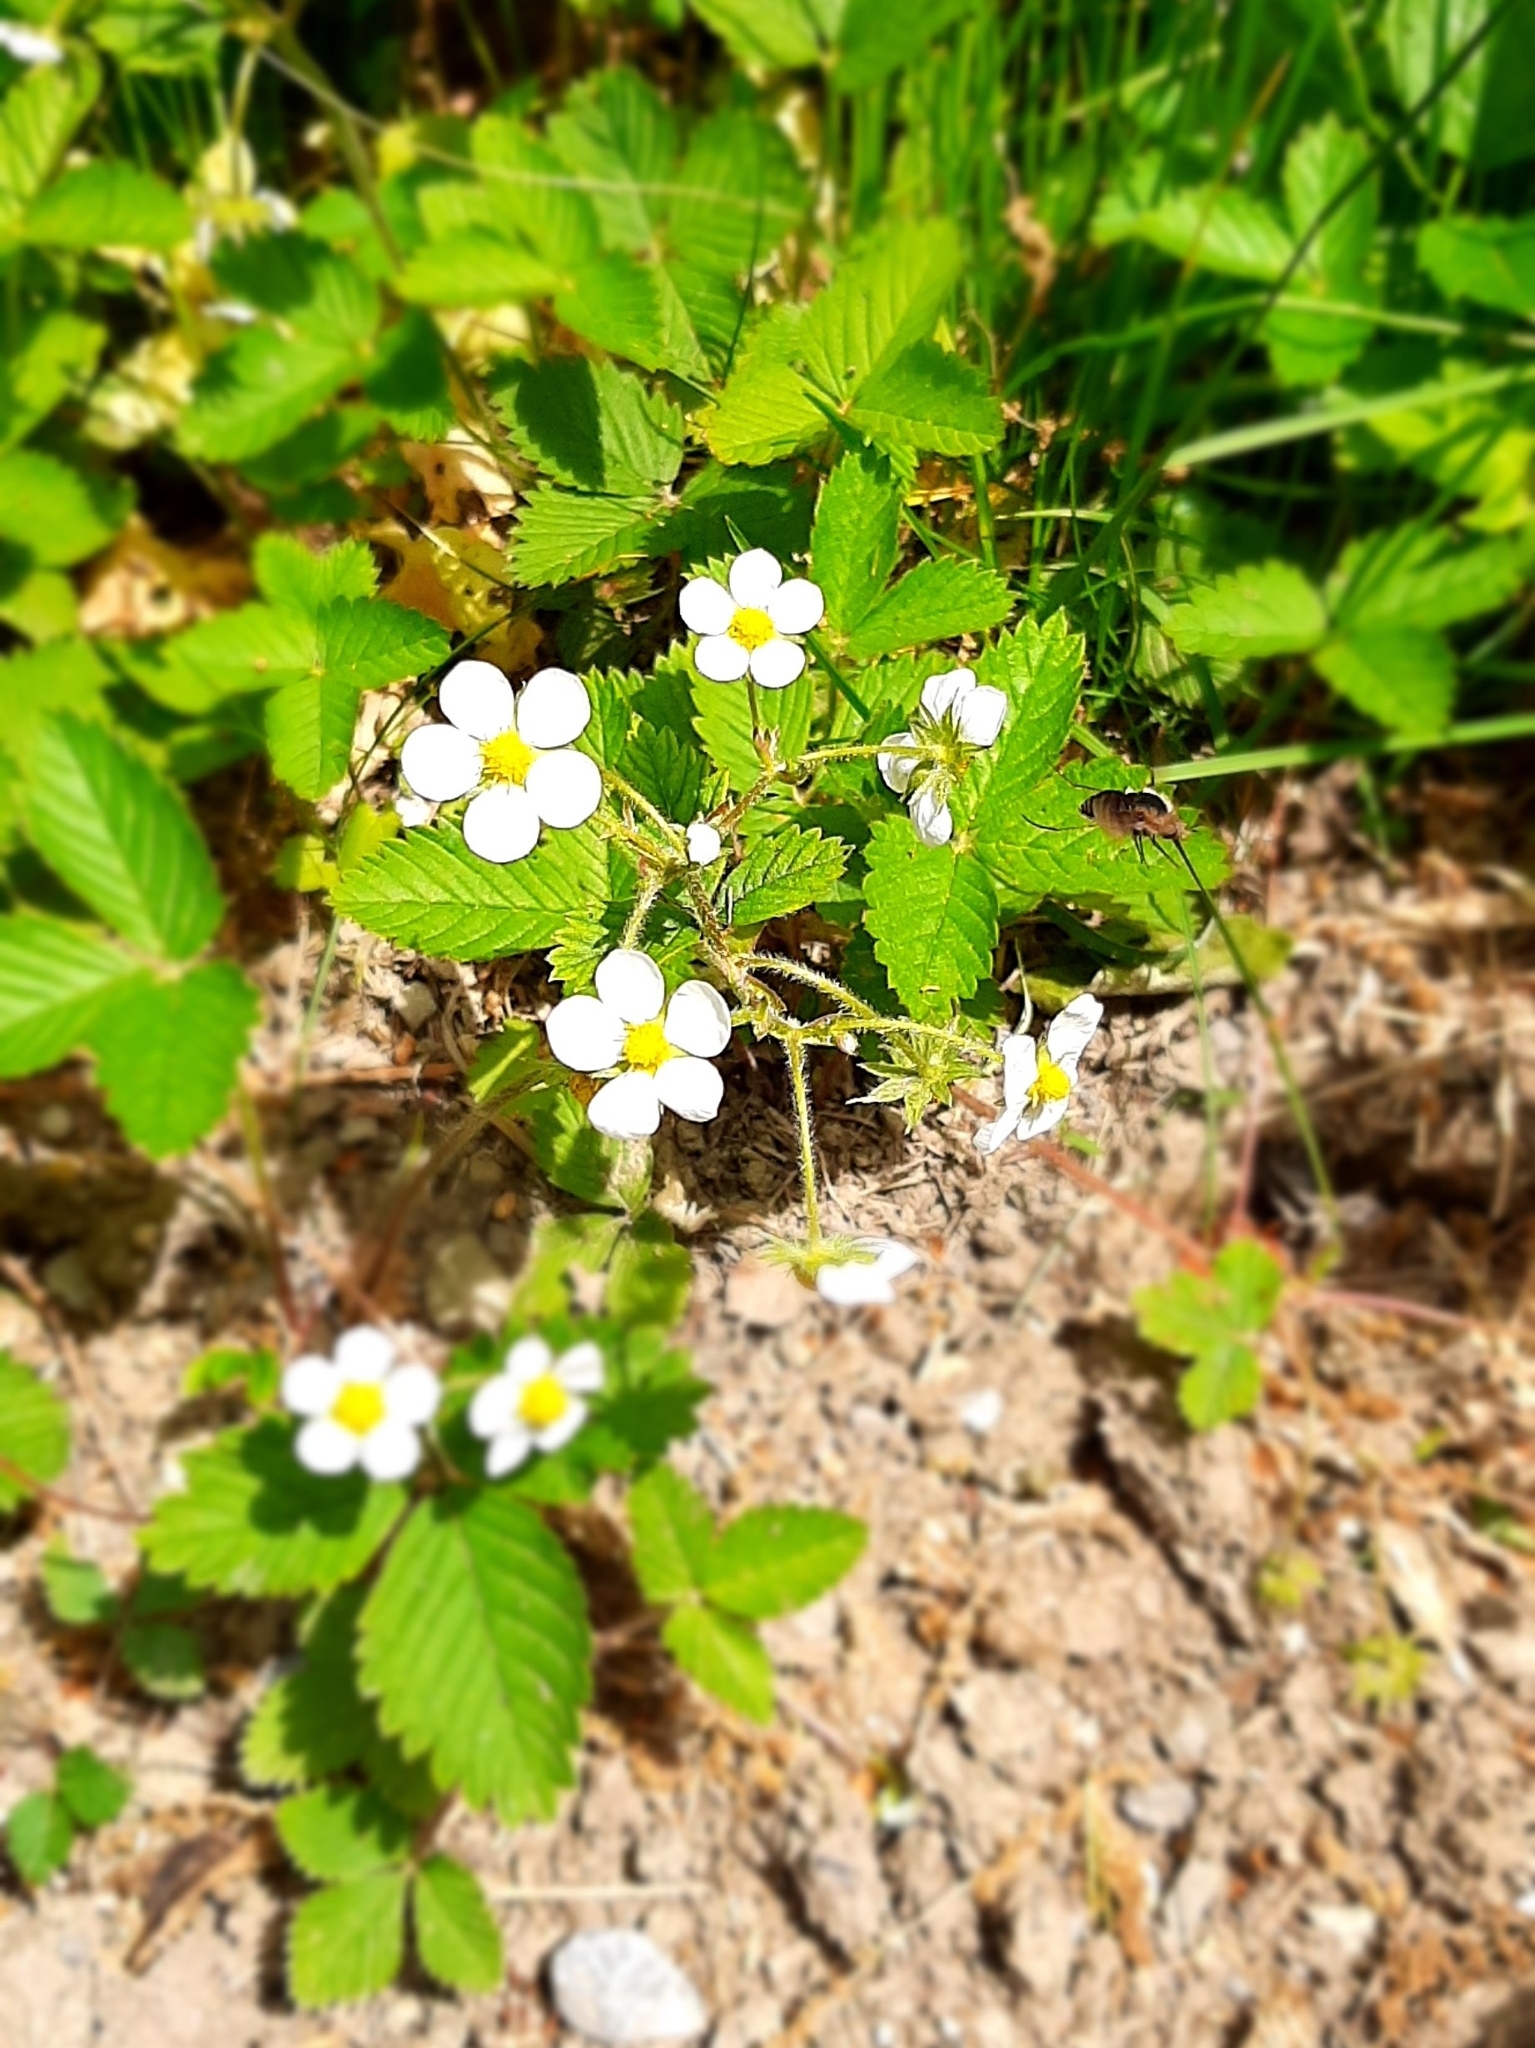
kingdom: Plantae
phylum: Tracheophyta
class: Magnoliopsida
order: Rosales
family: Rosaceae
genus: Fragaria
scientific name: Fragaria vesca
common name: Wild strawberry
